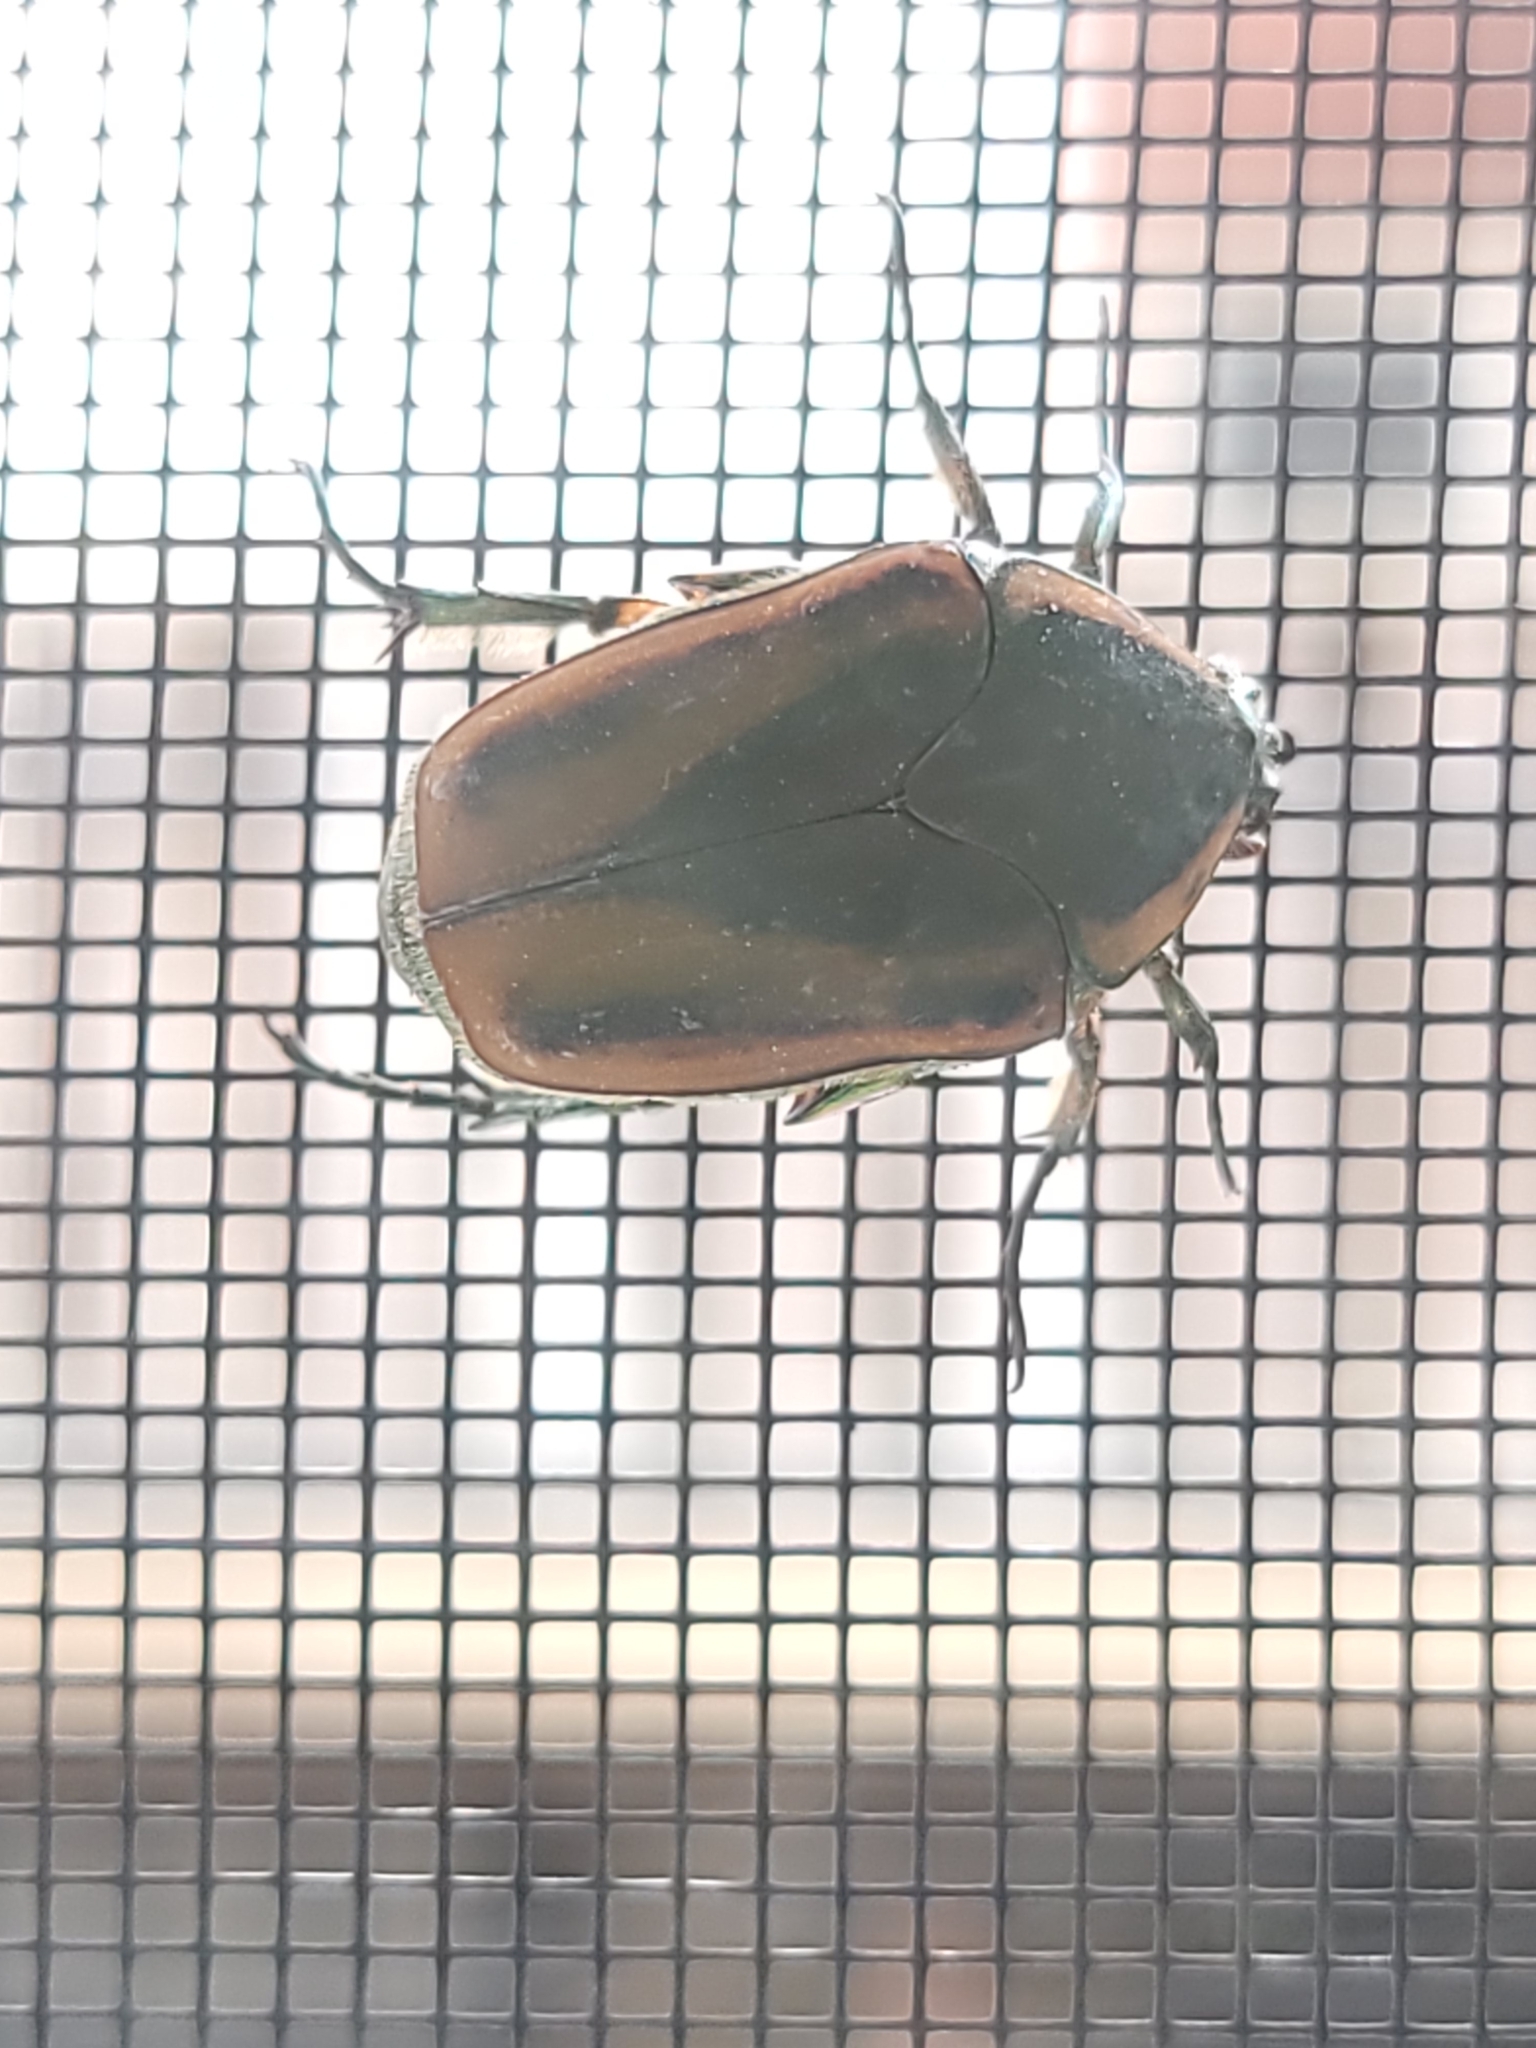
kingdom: Animalia
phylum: Arthropoda
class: Insecta
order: Coleoptera
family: Scarabaeidae
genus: Cotinis
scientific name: Cotinis nitida
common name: Common green june beetle
